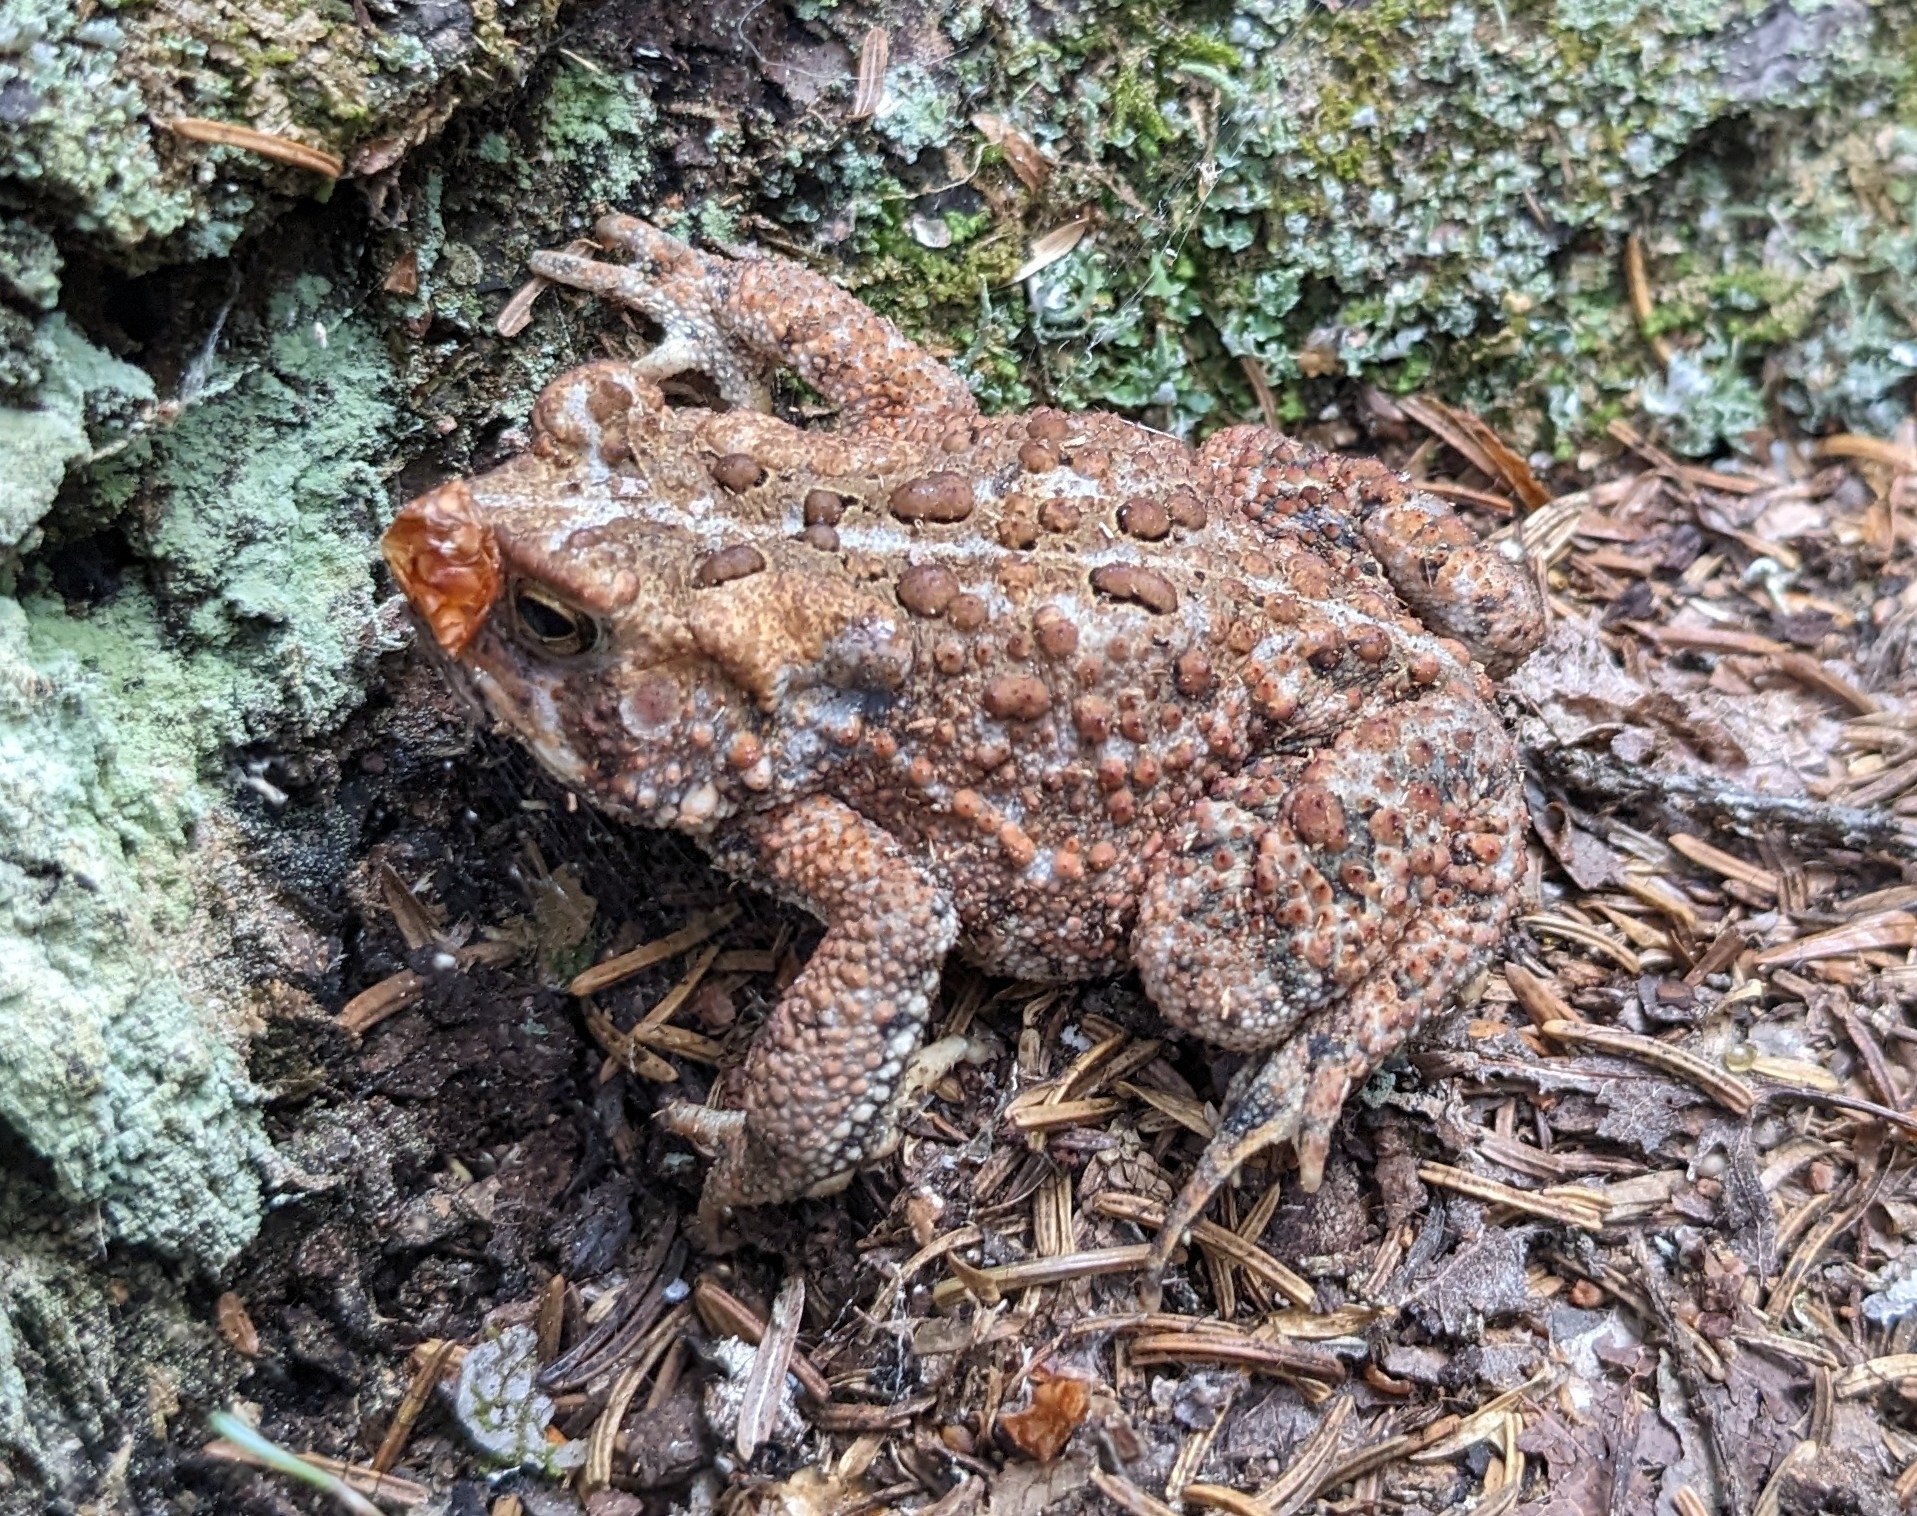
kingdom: Animalia
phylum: Chordata
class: Amphibia
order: Anura
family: Bufonidae
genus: Anaxyrus
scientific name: Anaxyrus americanus
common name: American toad
